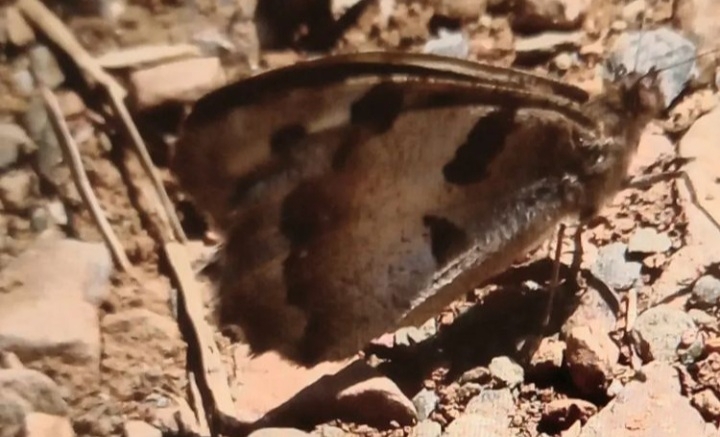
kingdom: Animalia
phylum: Arthropoda
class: Insecta
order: Lepidoptera
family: Nymphalidae
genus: Satyrus
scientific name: Satyrus briseis
